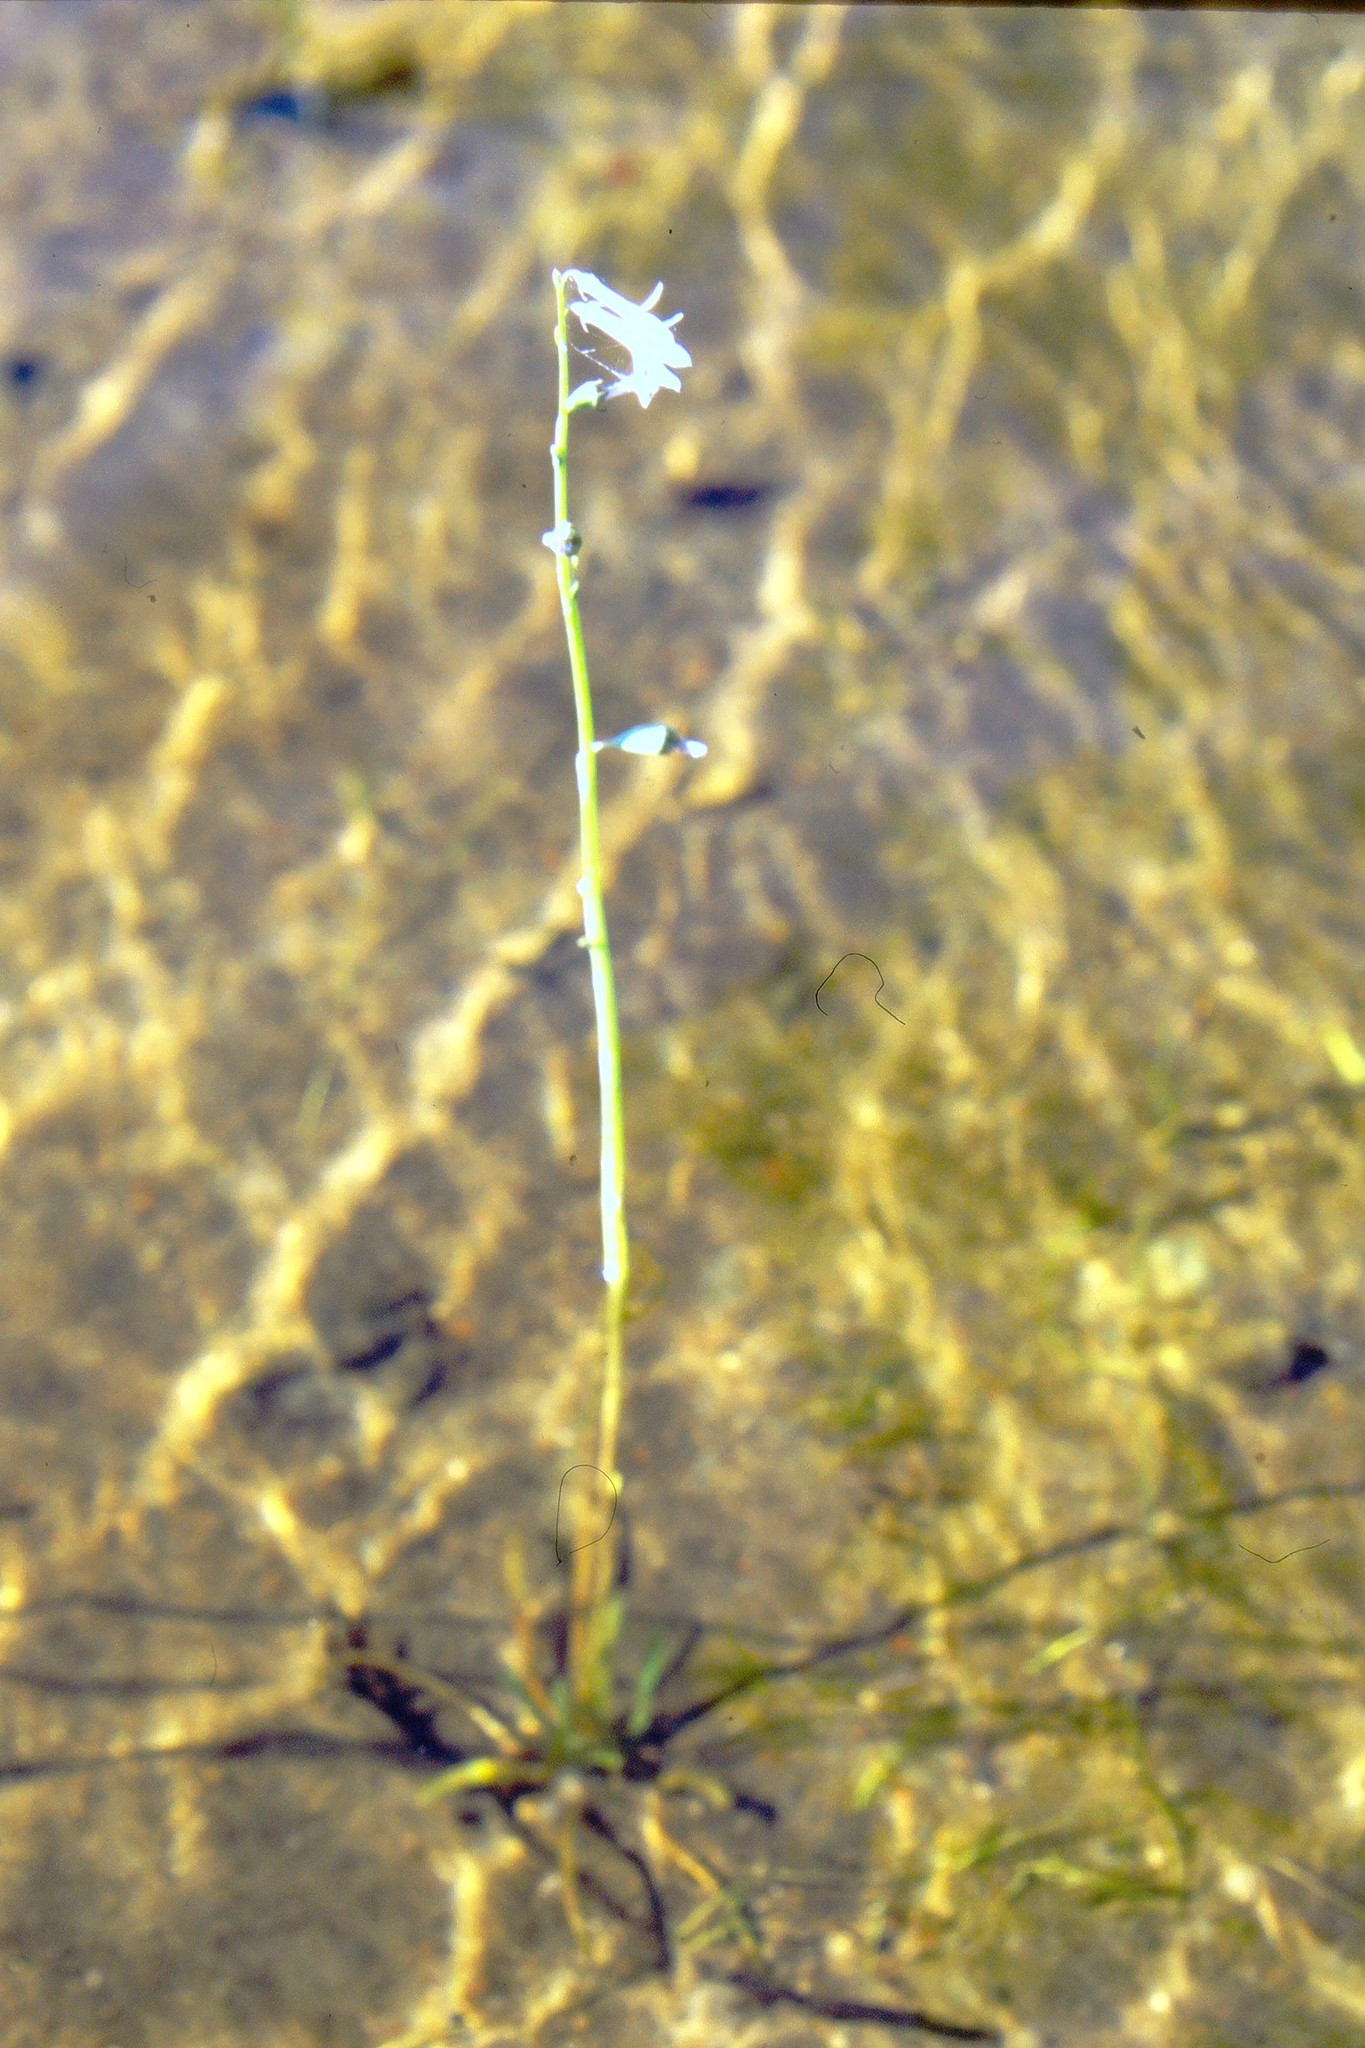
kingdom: Plantae
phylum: Tracheophyta
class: Magnoliopsida
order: Asterales
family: Campanulaceae
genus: Lobelia
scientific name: Lobelia dortmanna
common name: Water lobelia
